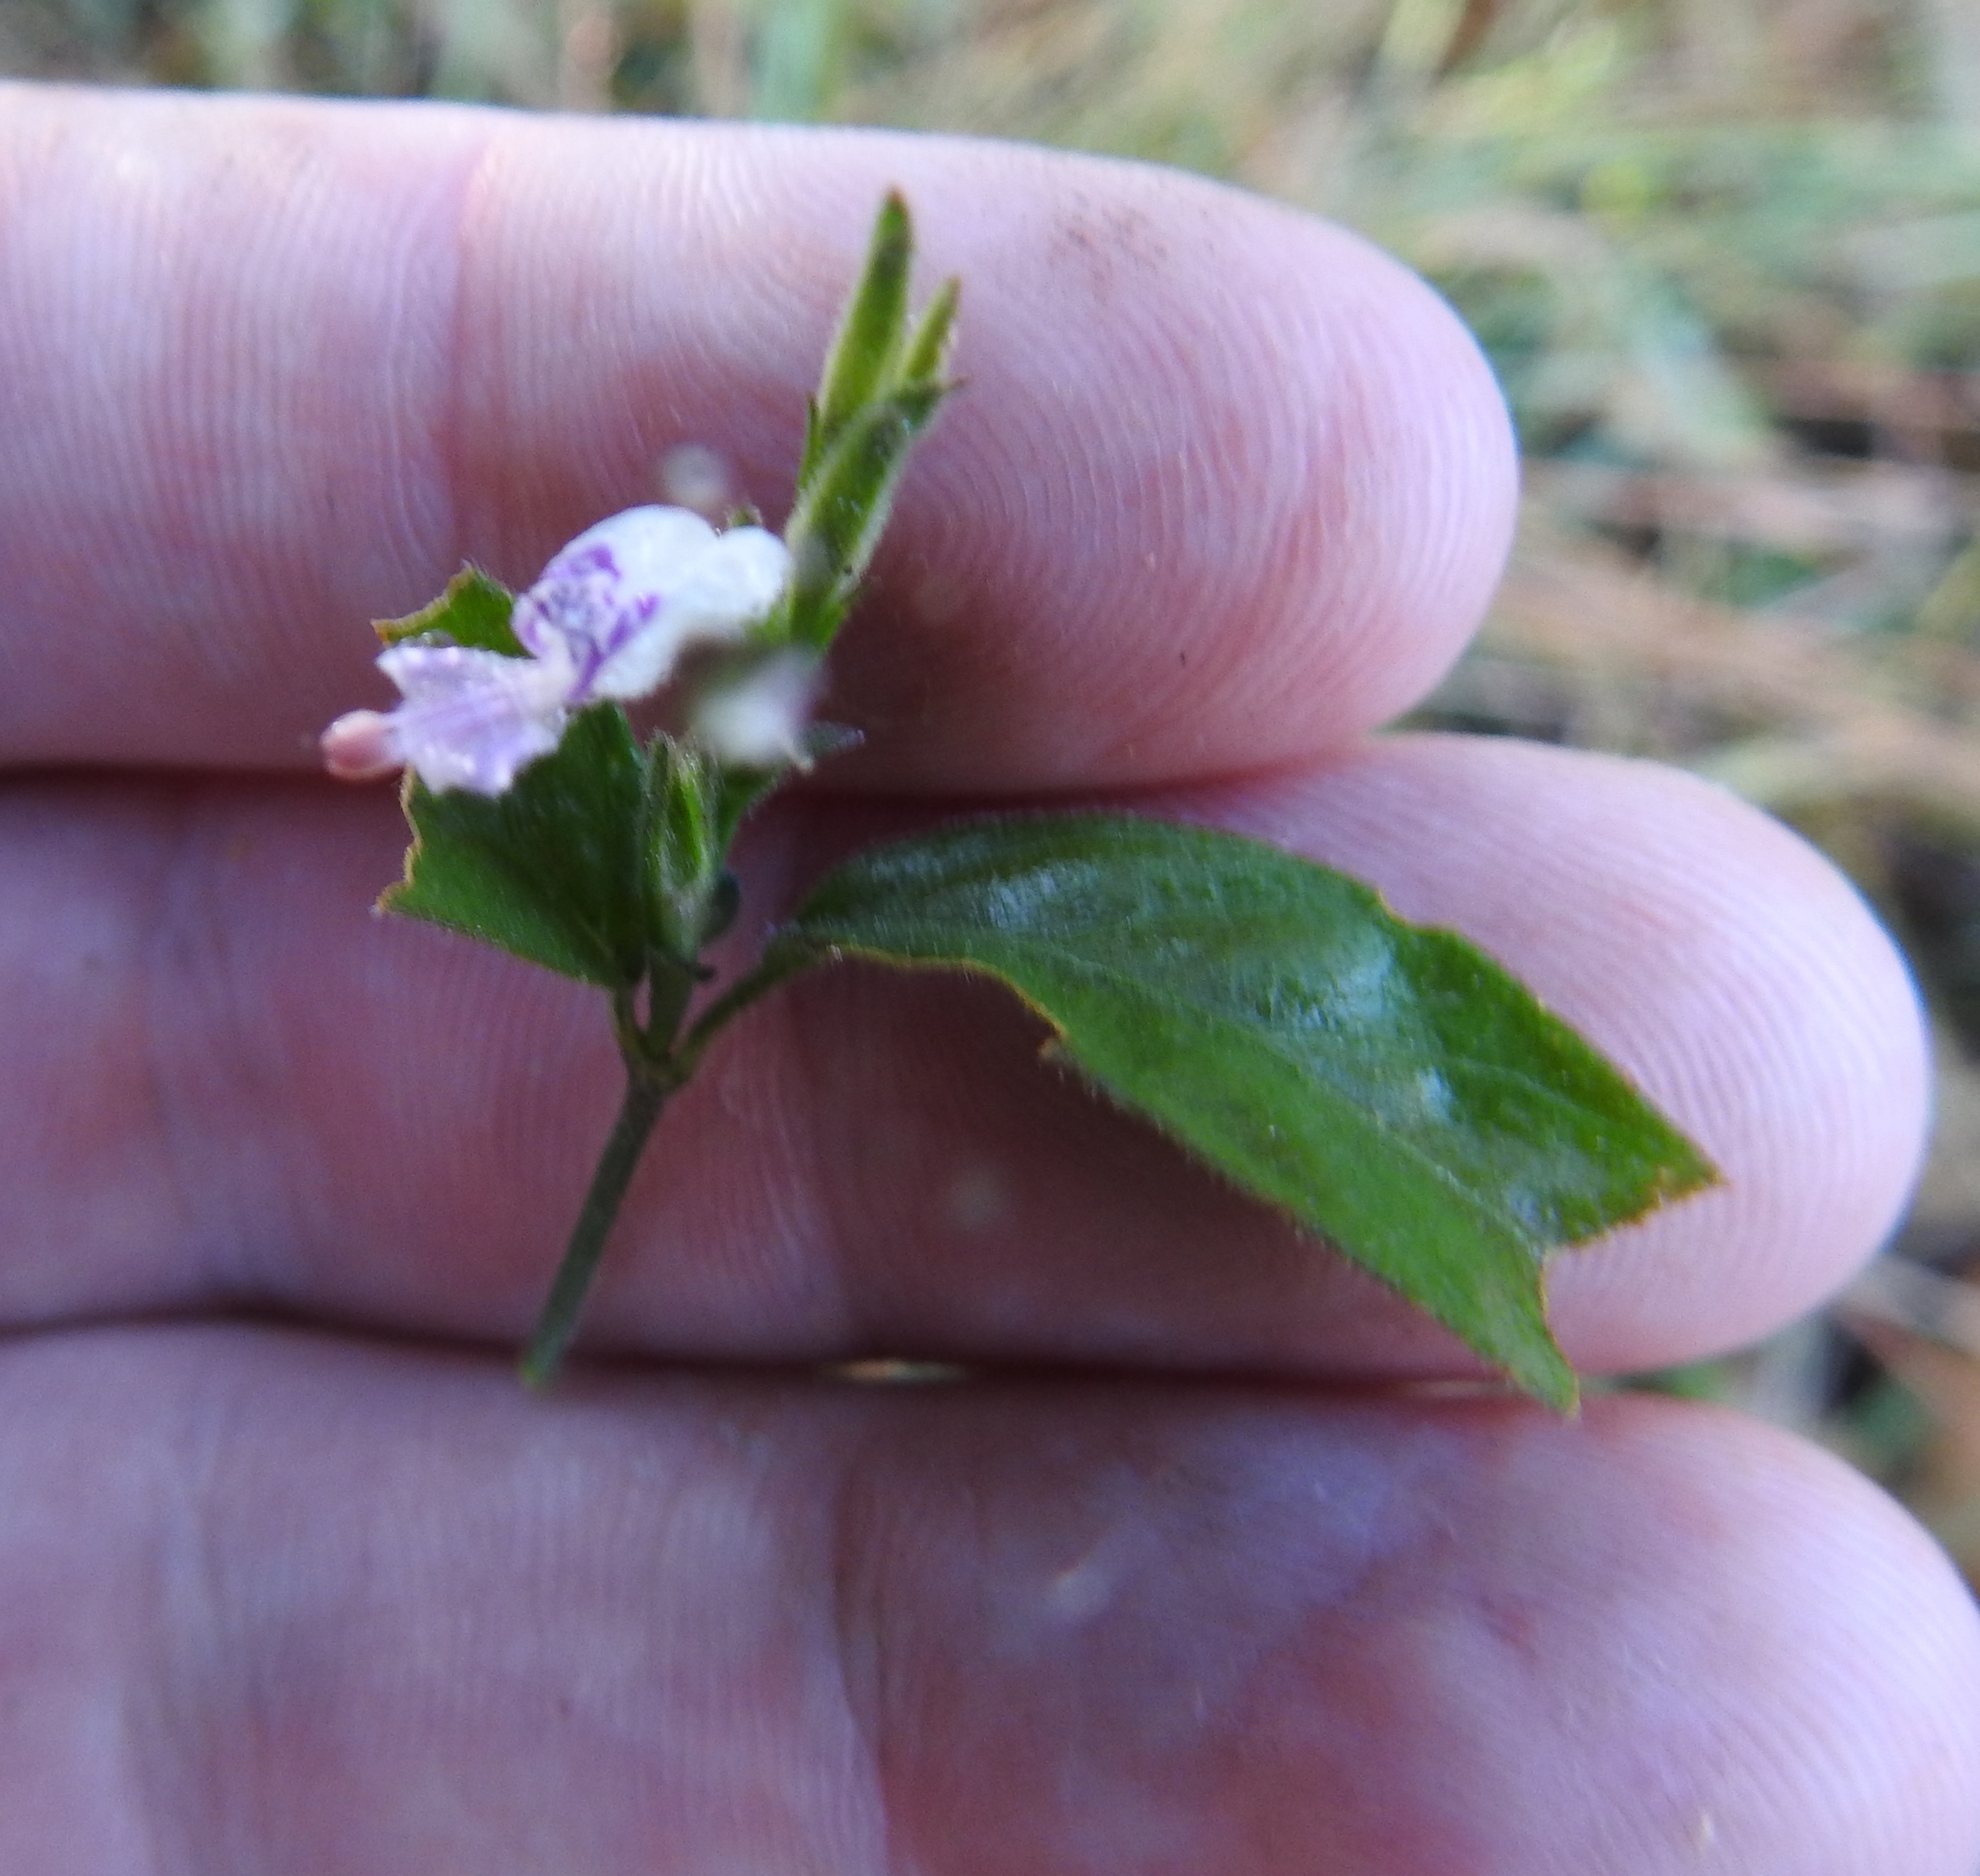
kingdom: Plantae
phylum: Tracheophyta
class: Magnoliopsida
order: Lamiales
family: Acanthaceae
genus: Hypoestes
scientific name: Hypoestes forskaolii
